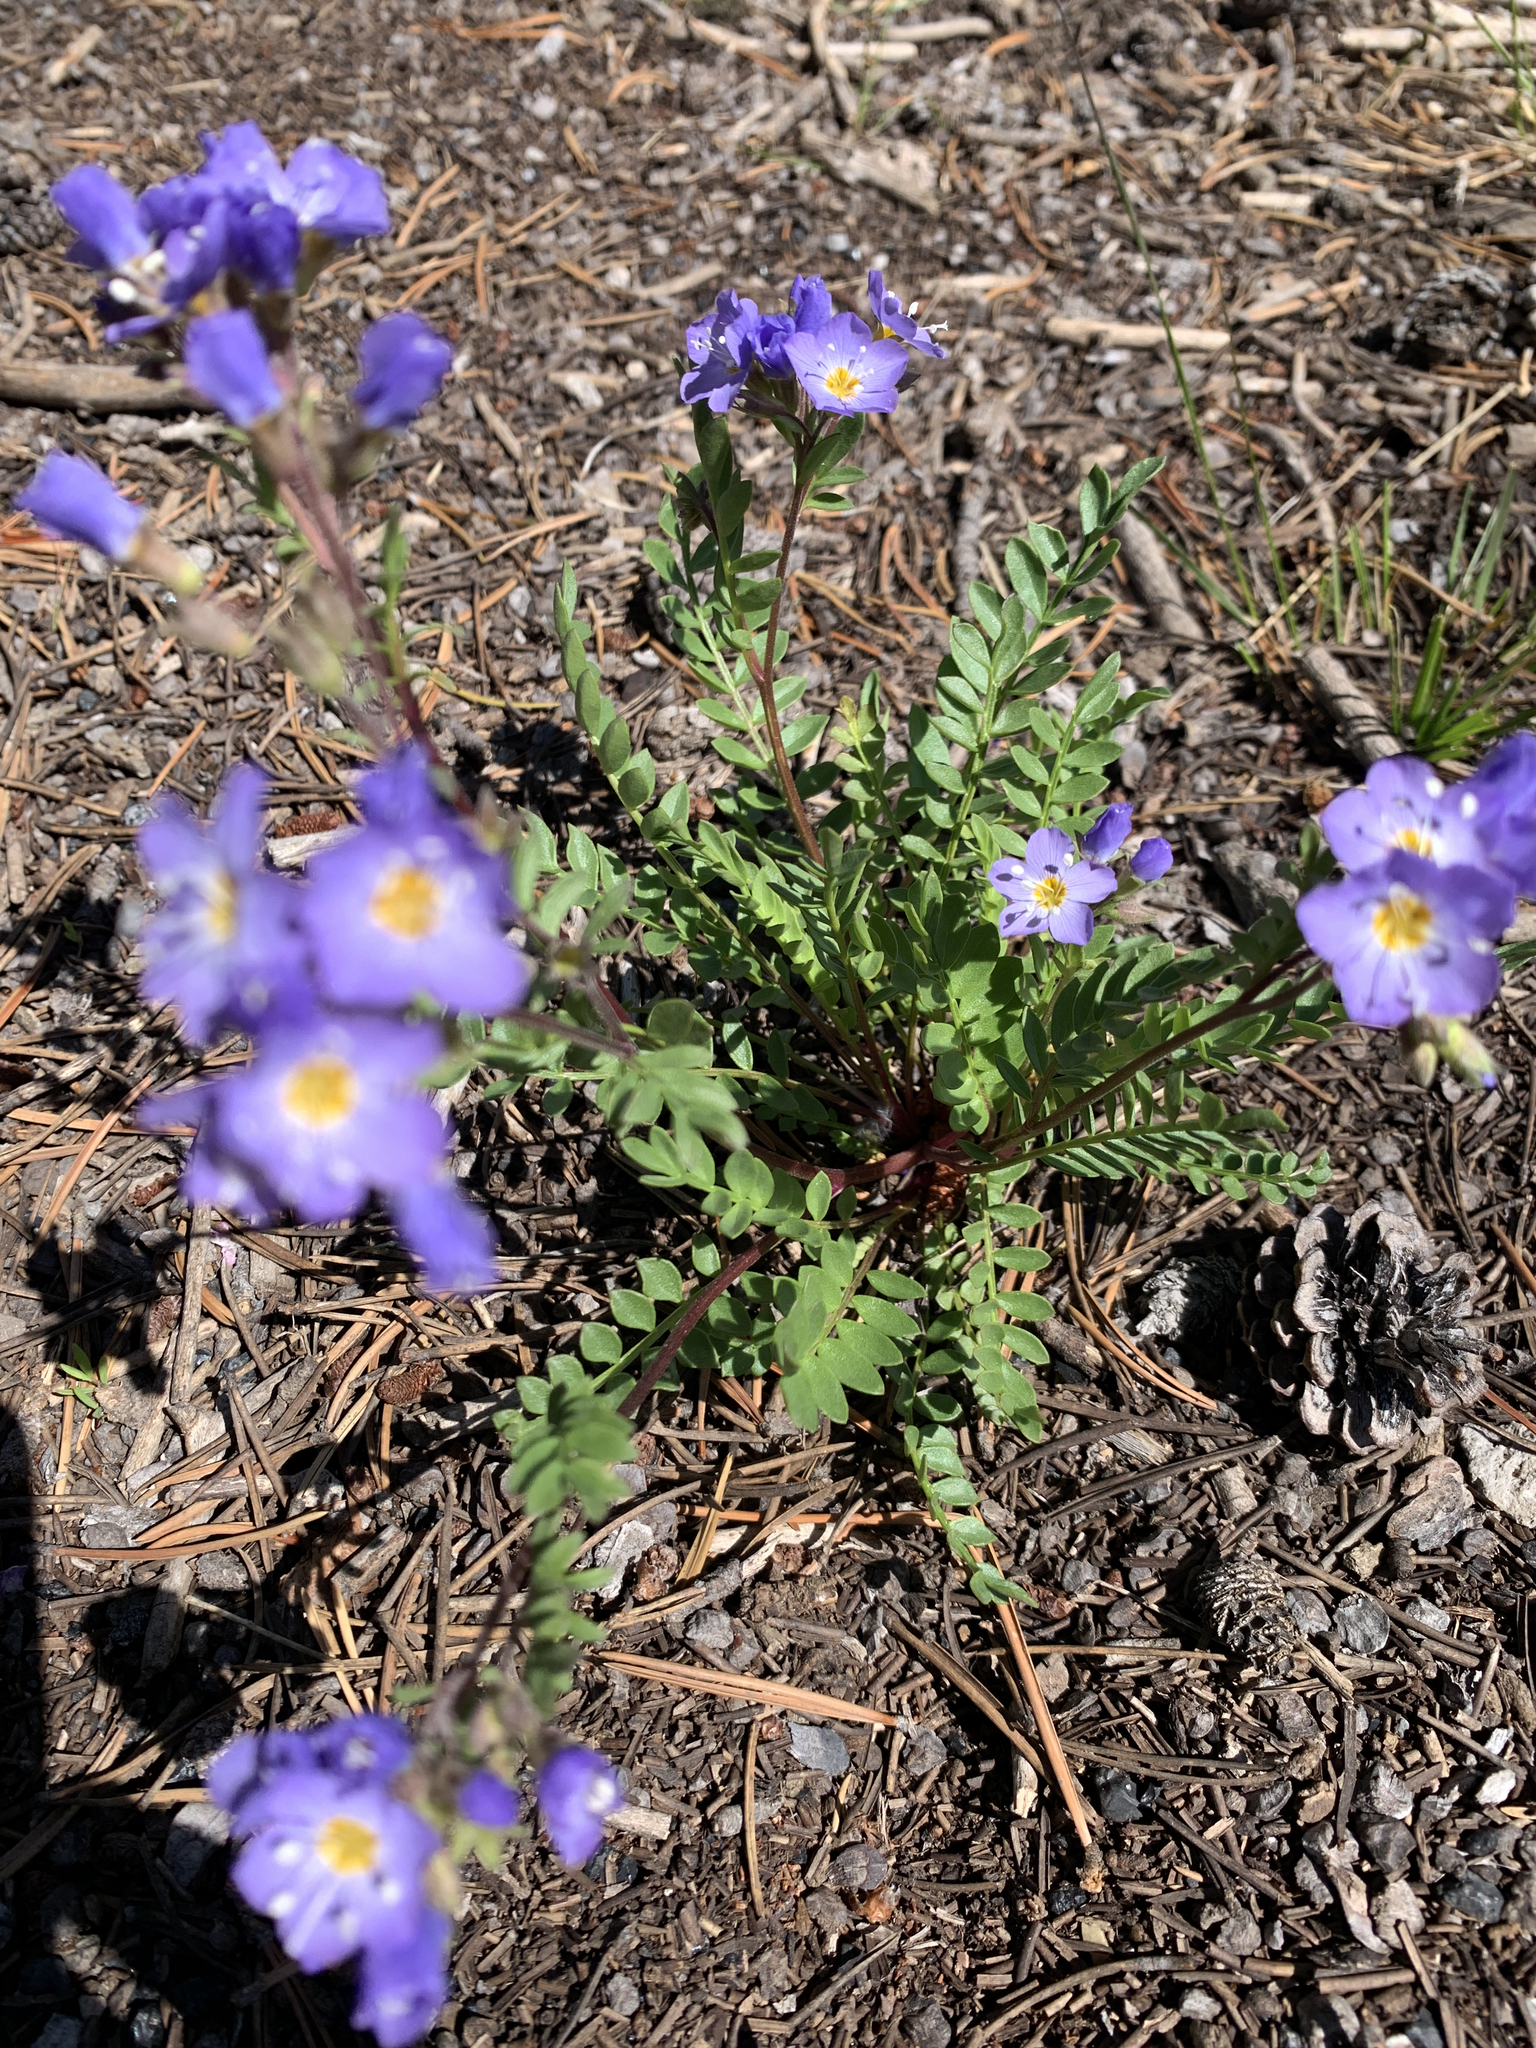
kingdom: Plantae
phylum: Tracheophyta
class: Magnoliopsida
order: Ericales
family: Polemoniaceae
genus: Polemonium
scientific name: Polemonium pulcherrimum
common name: Short jacob's-ladder
